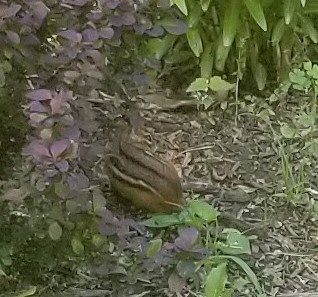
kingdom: Animalia
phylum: Chordata
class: Mammalia
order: Rodentia
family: Sciuridae
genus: Tamias
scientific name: Tamias striatus
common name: Eastern chipmunk
